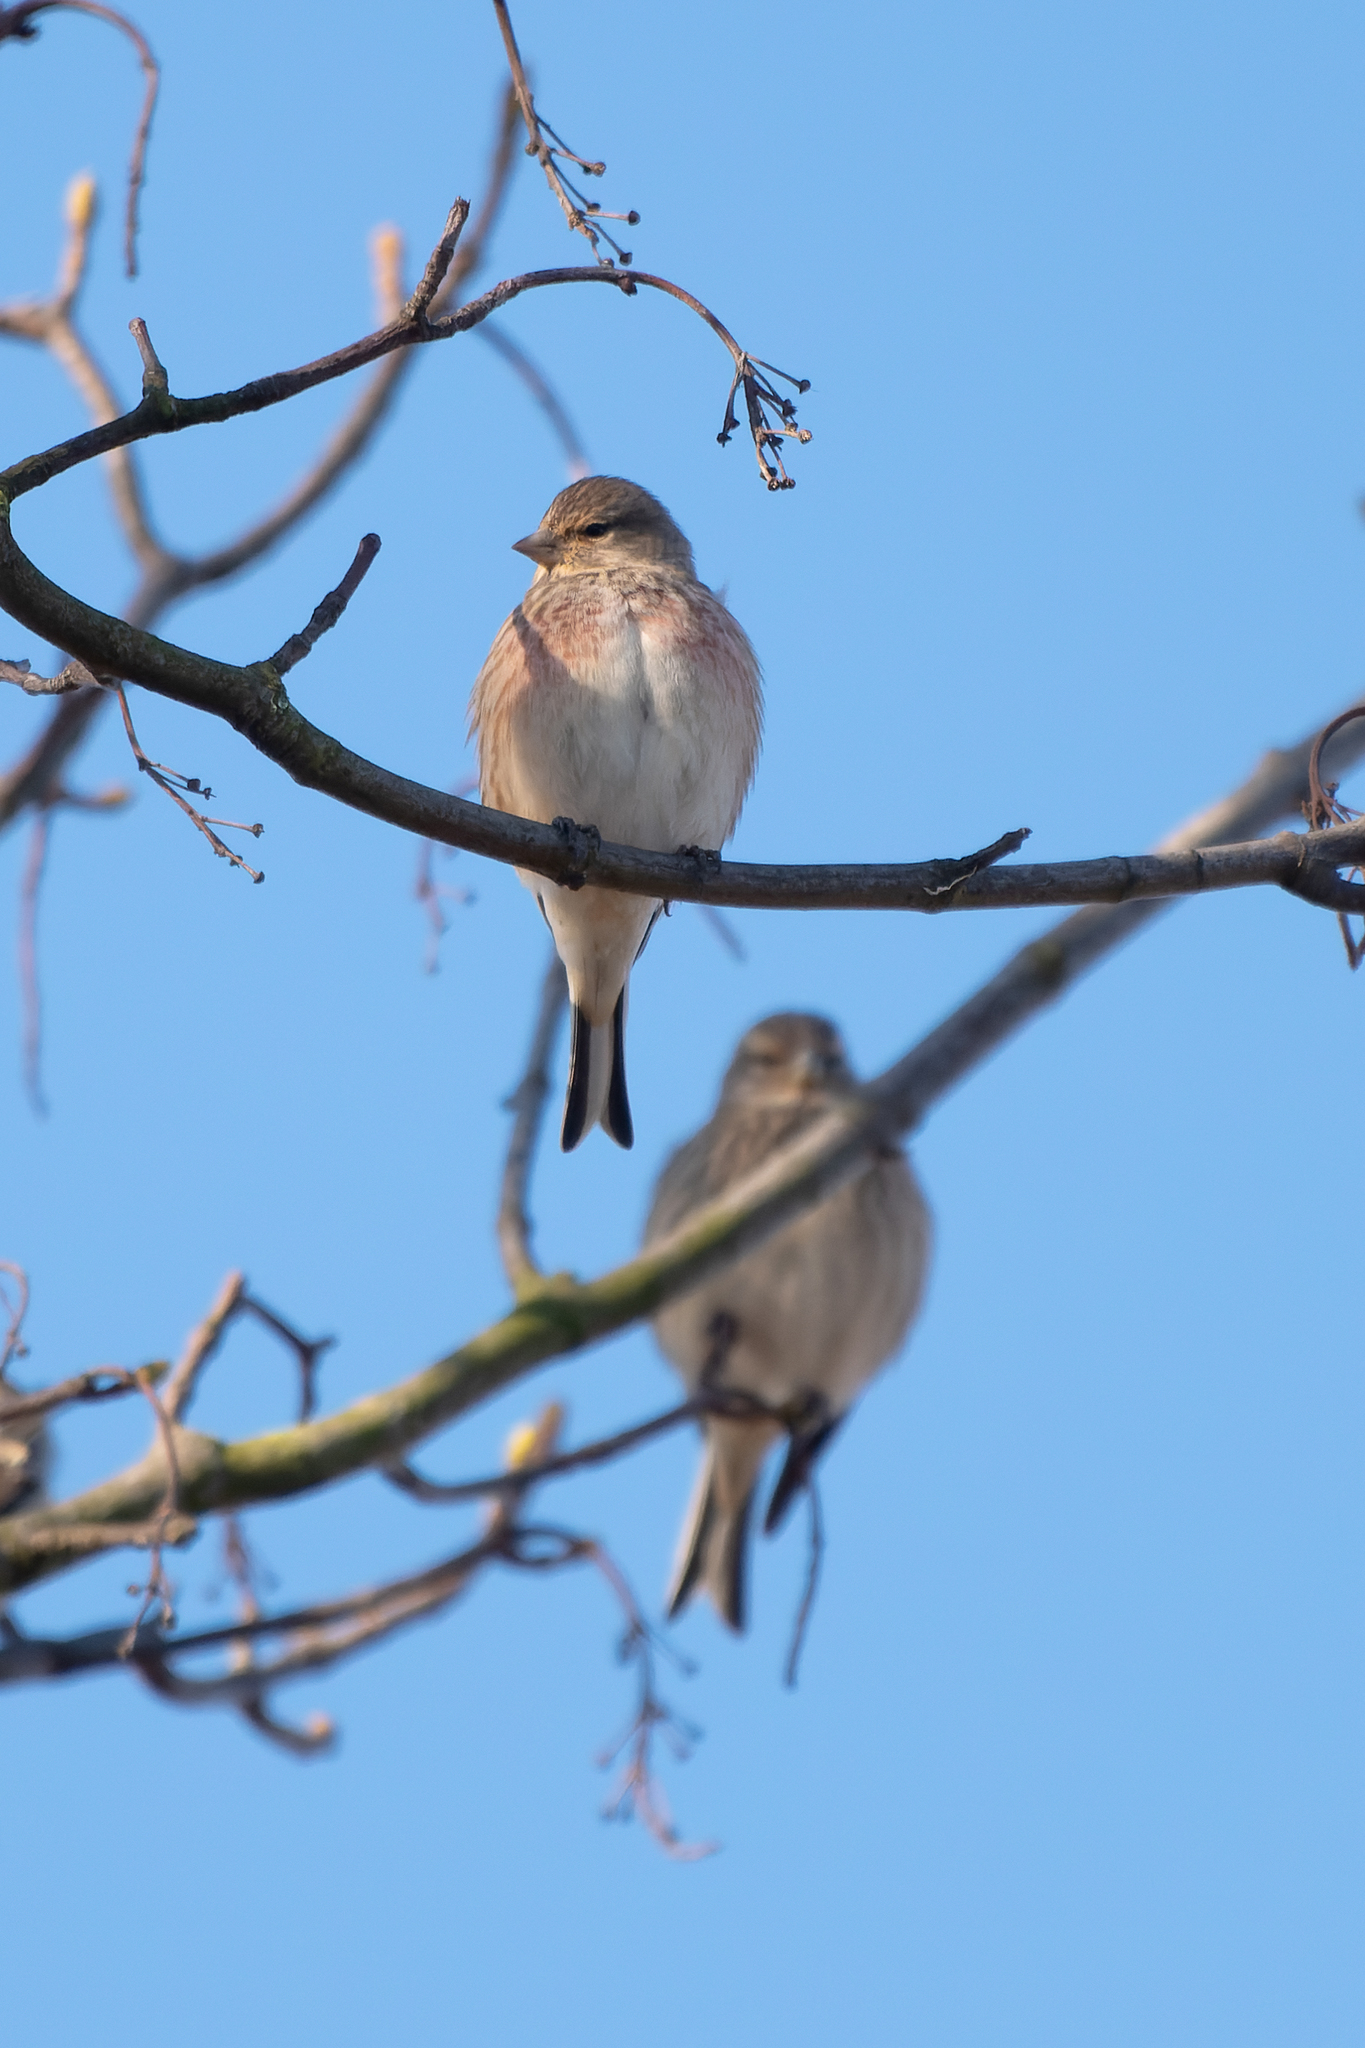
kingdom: Animalia
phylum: Chordata
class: Aves
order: Passeriformes
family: Fringillidae
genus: Linaria
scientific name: Linaria cannabina
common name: Common linnet
